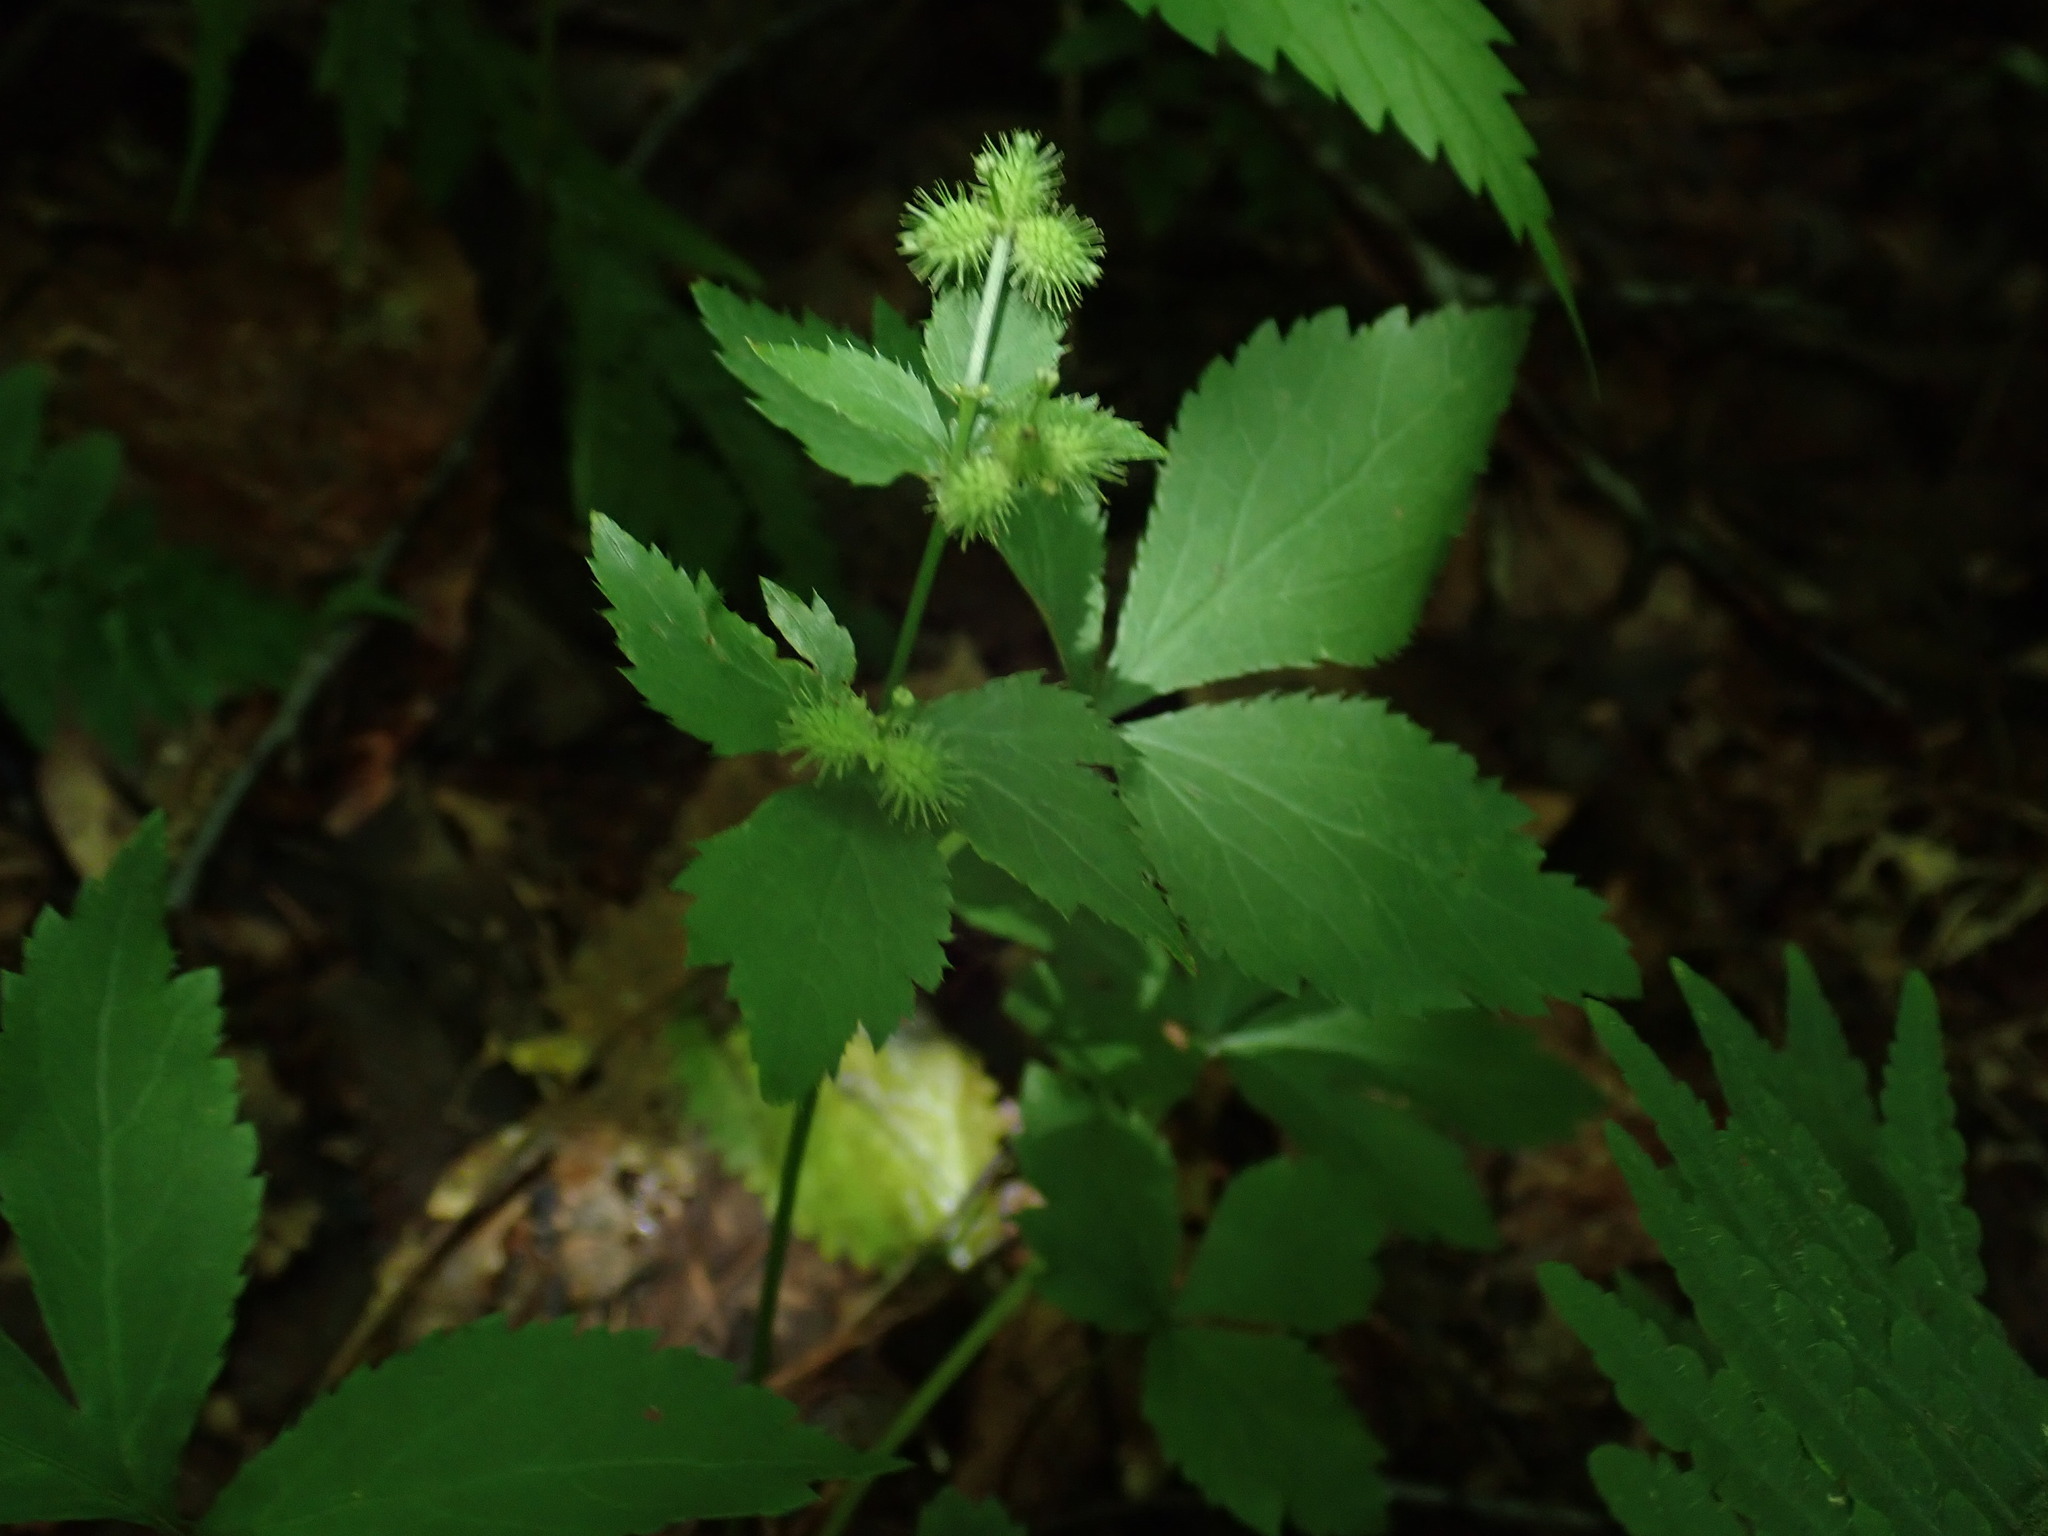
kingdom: Plantae
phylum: Tracheophyta
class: Magnoliopsida
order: Apiales
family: Apiaceae
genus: Sanicula
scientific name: Sanicula trifoliata
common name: Beaked sanicle
